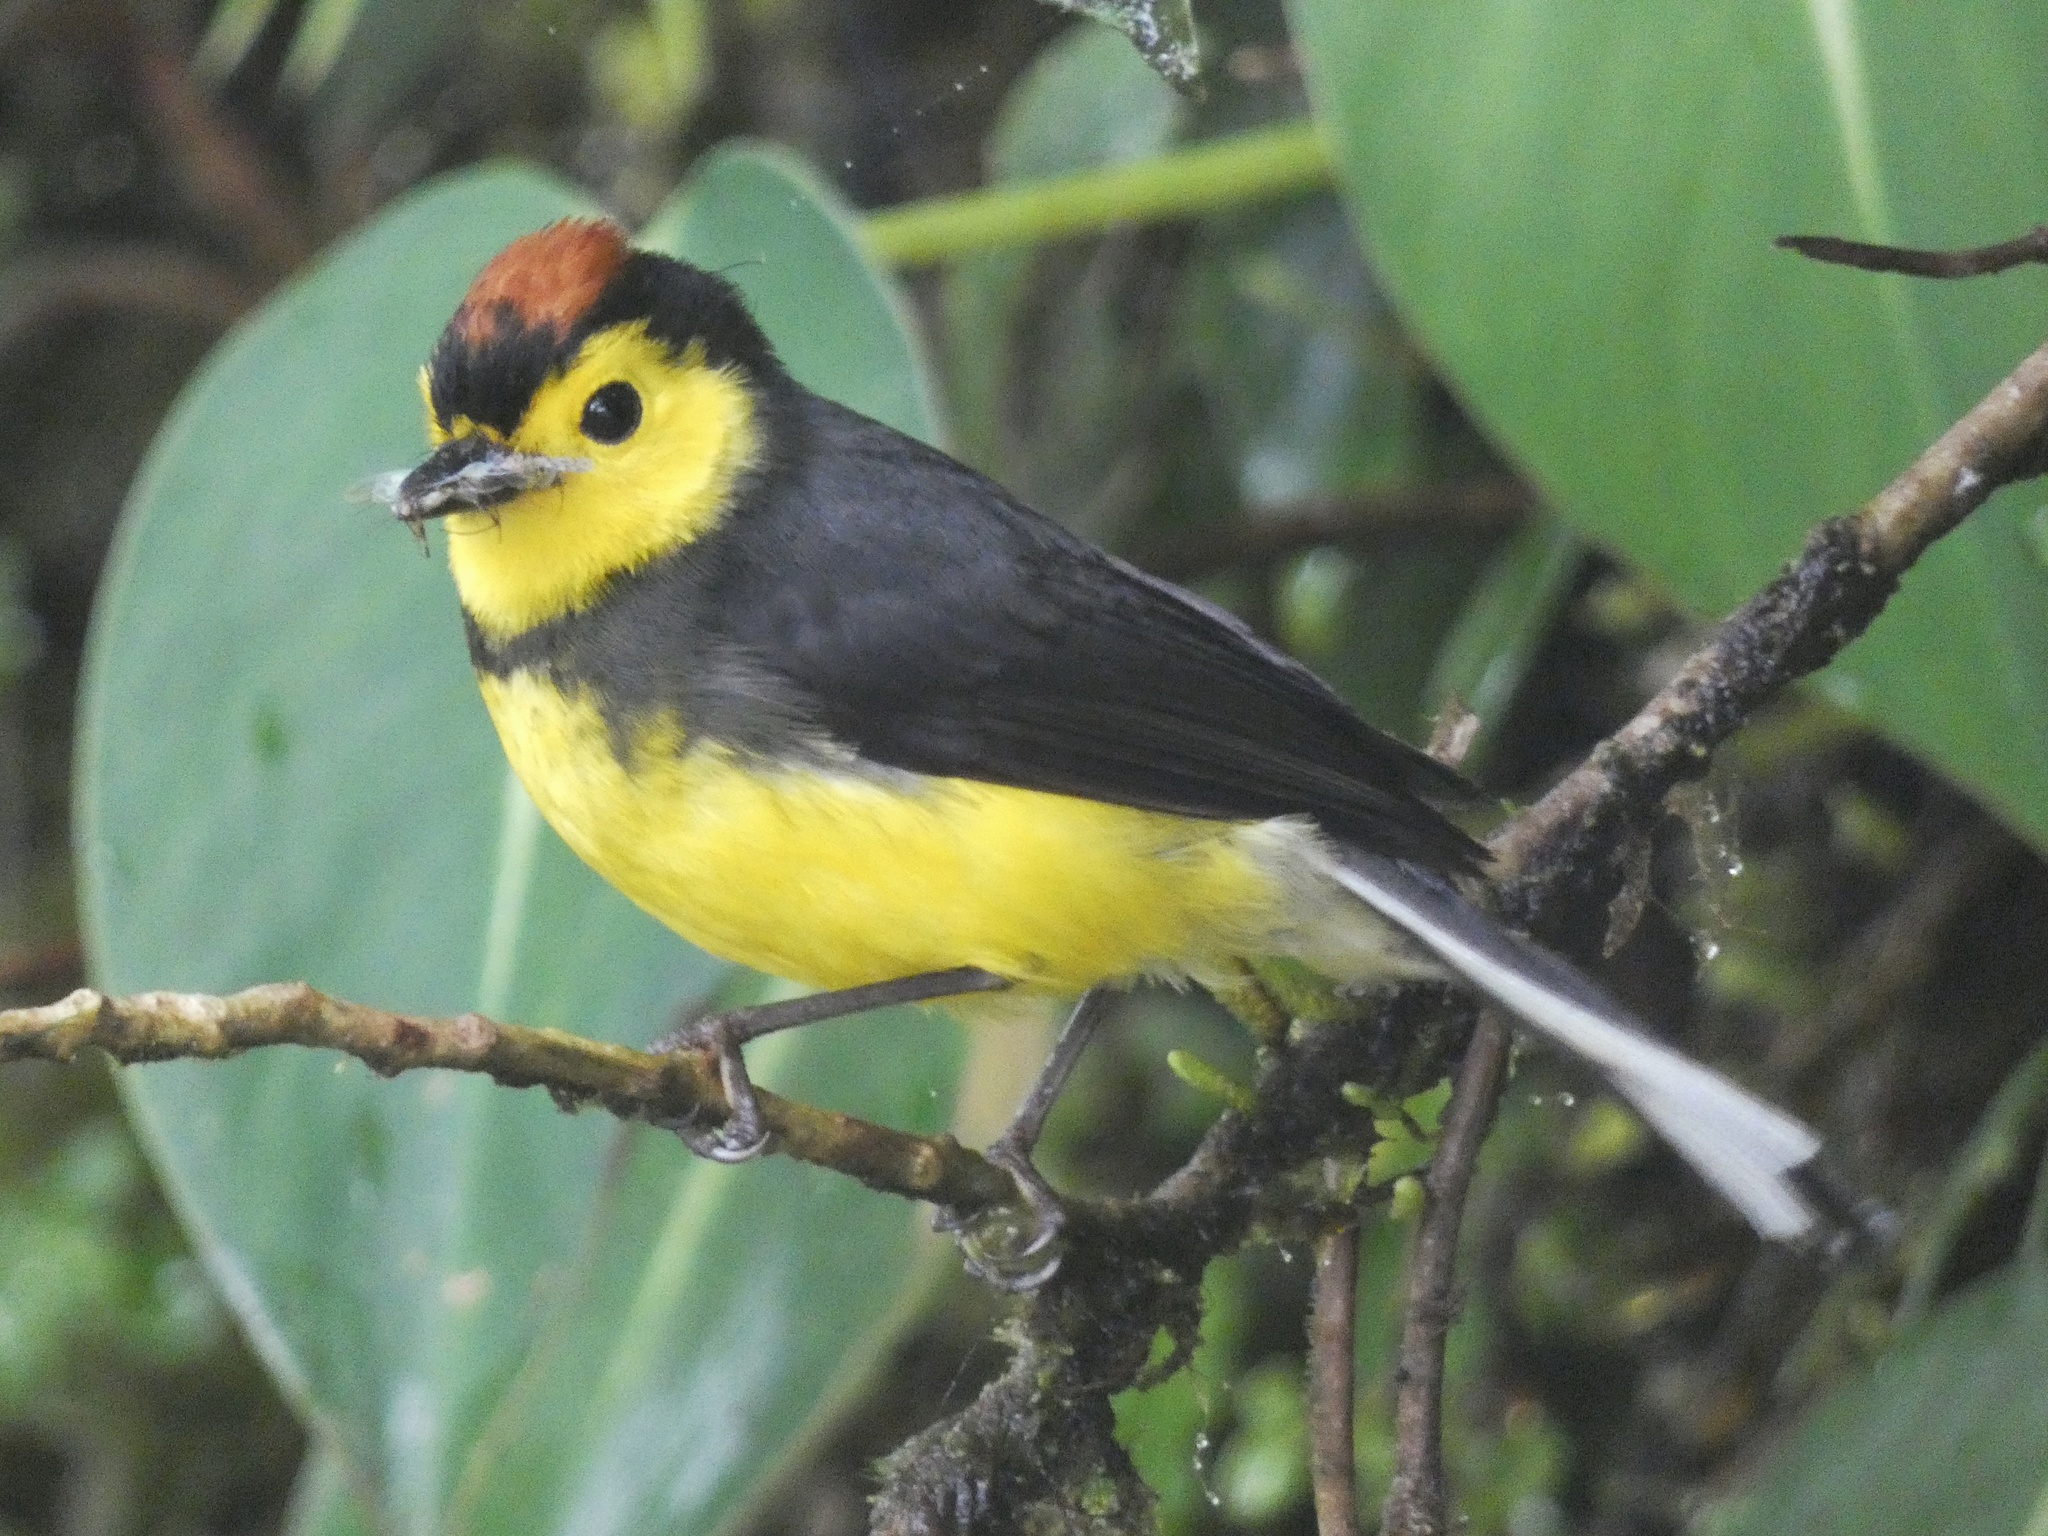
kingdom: Animalia
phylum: Chordata
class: Aves
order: Passeriformes
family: Parulidae
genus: Myioborus
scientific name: Myioborus torquatus
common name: Collared whitestart
